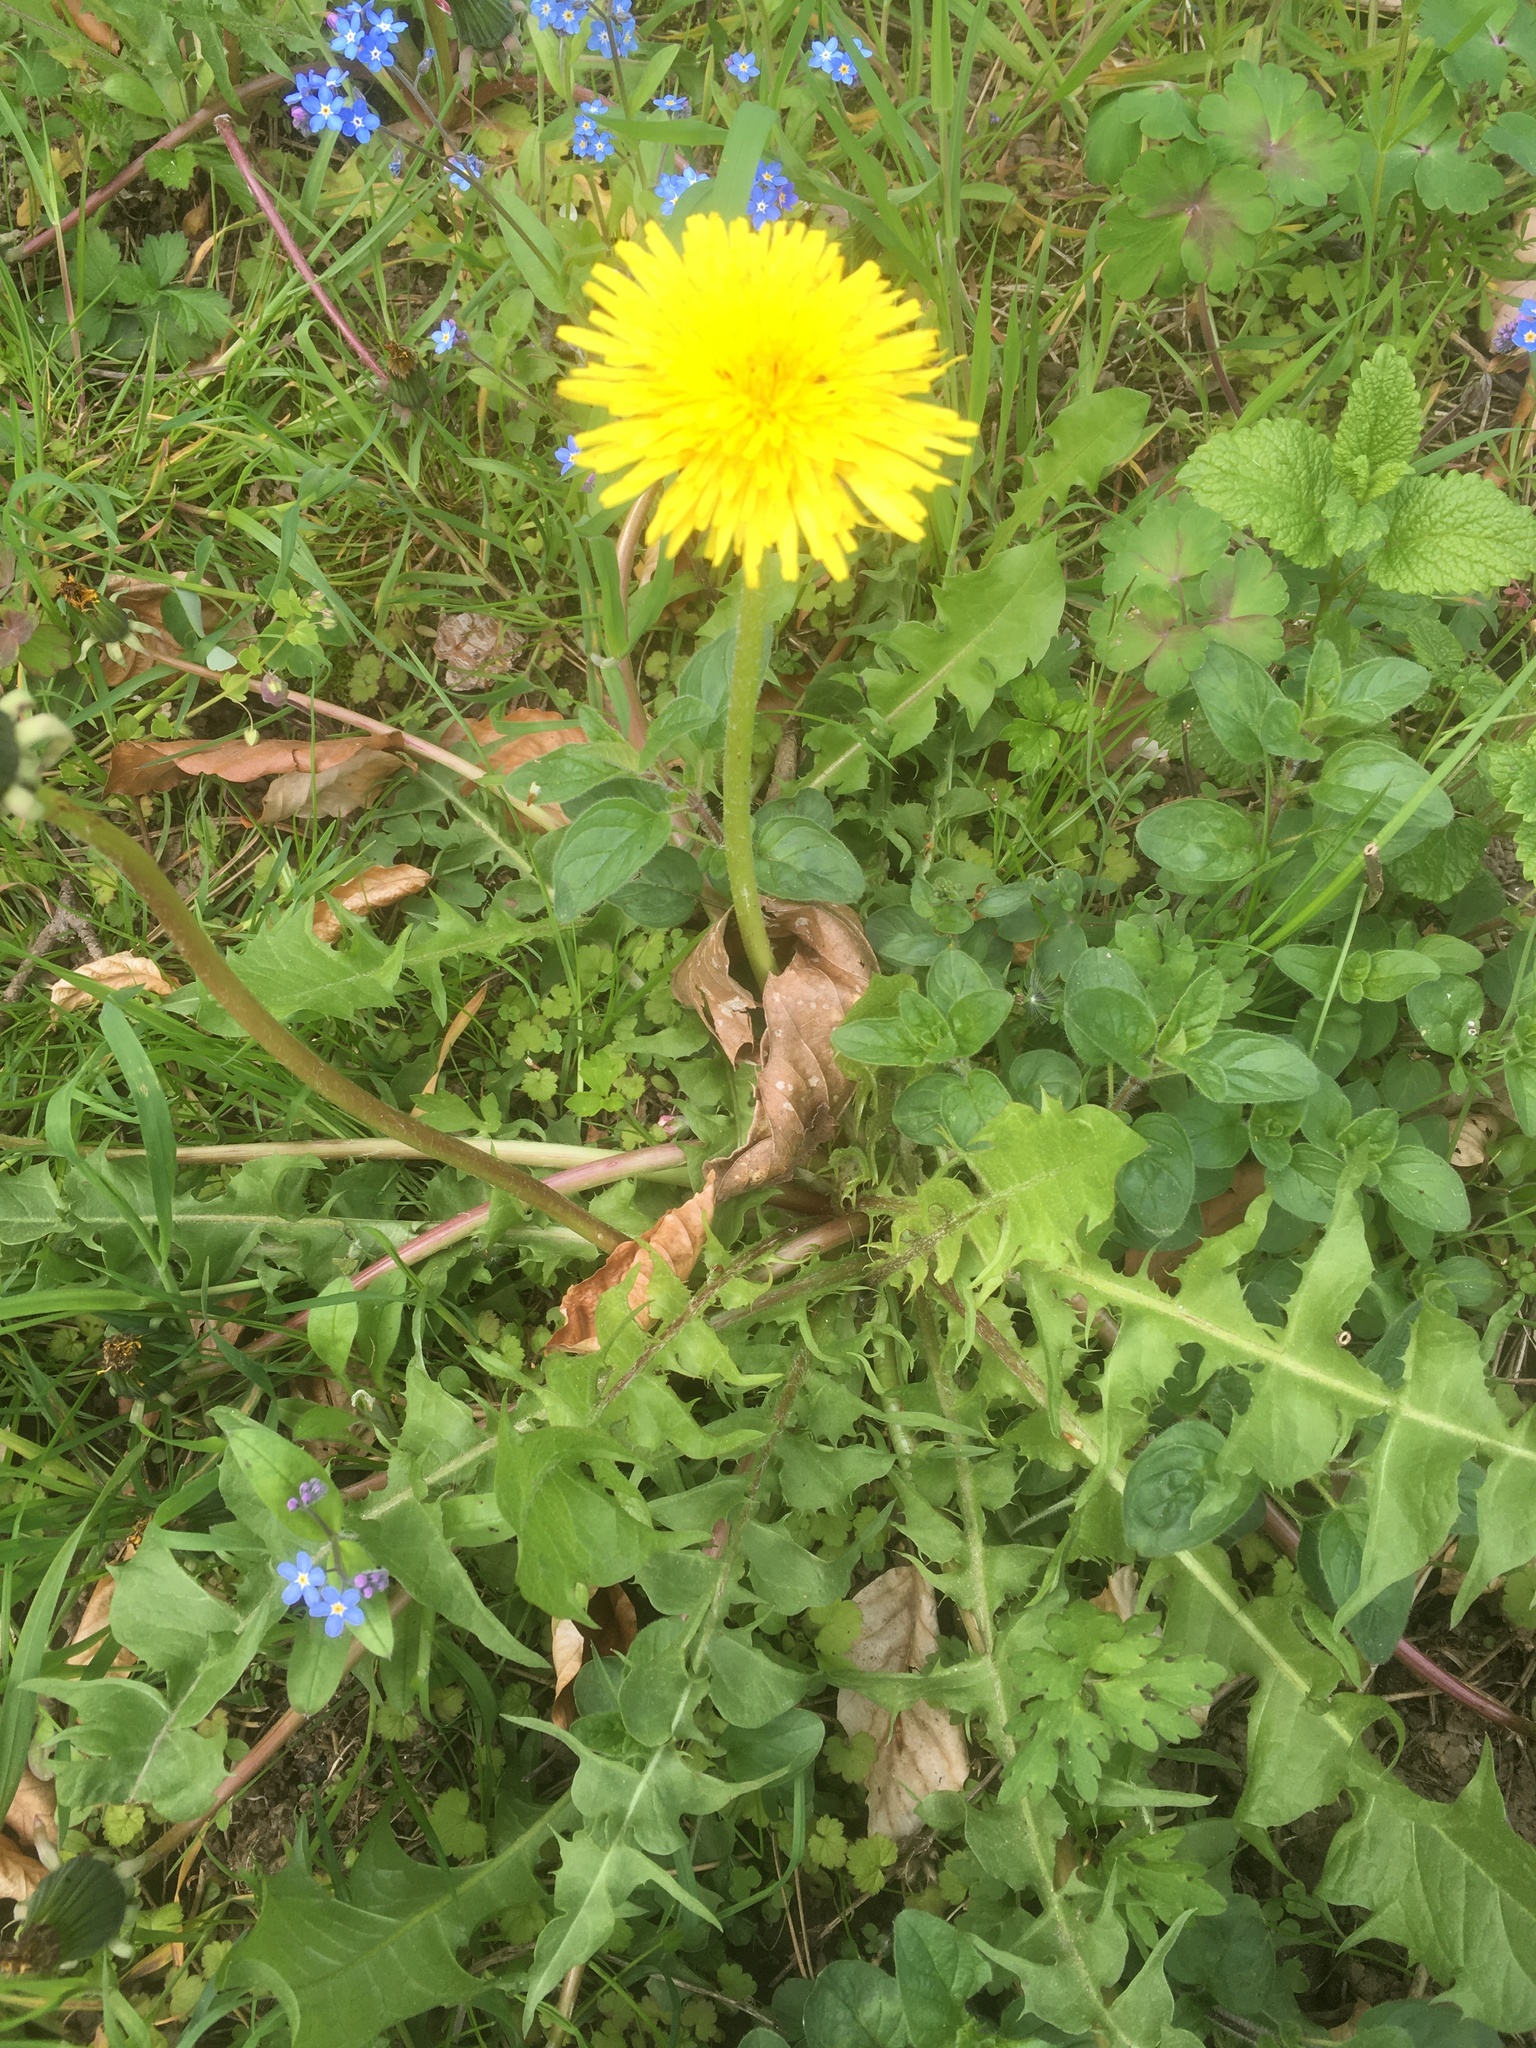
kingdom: Plantae
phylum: Tracheophyta
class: Magnoliopsida
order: Asterales
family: Asteraceae
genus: Taraxacum
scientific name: Taraxacum officinale
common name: Common dandelion
